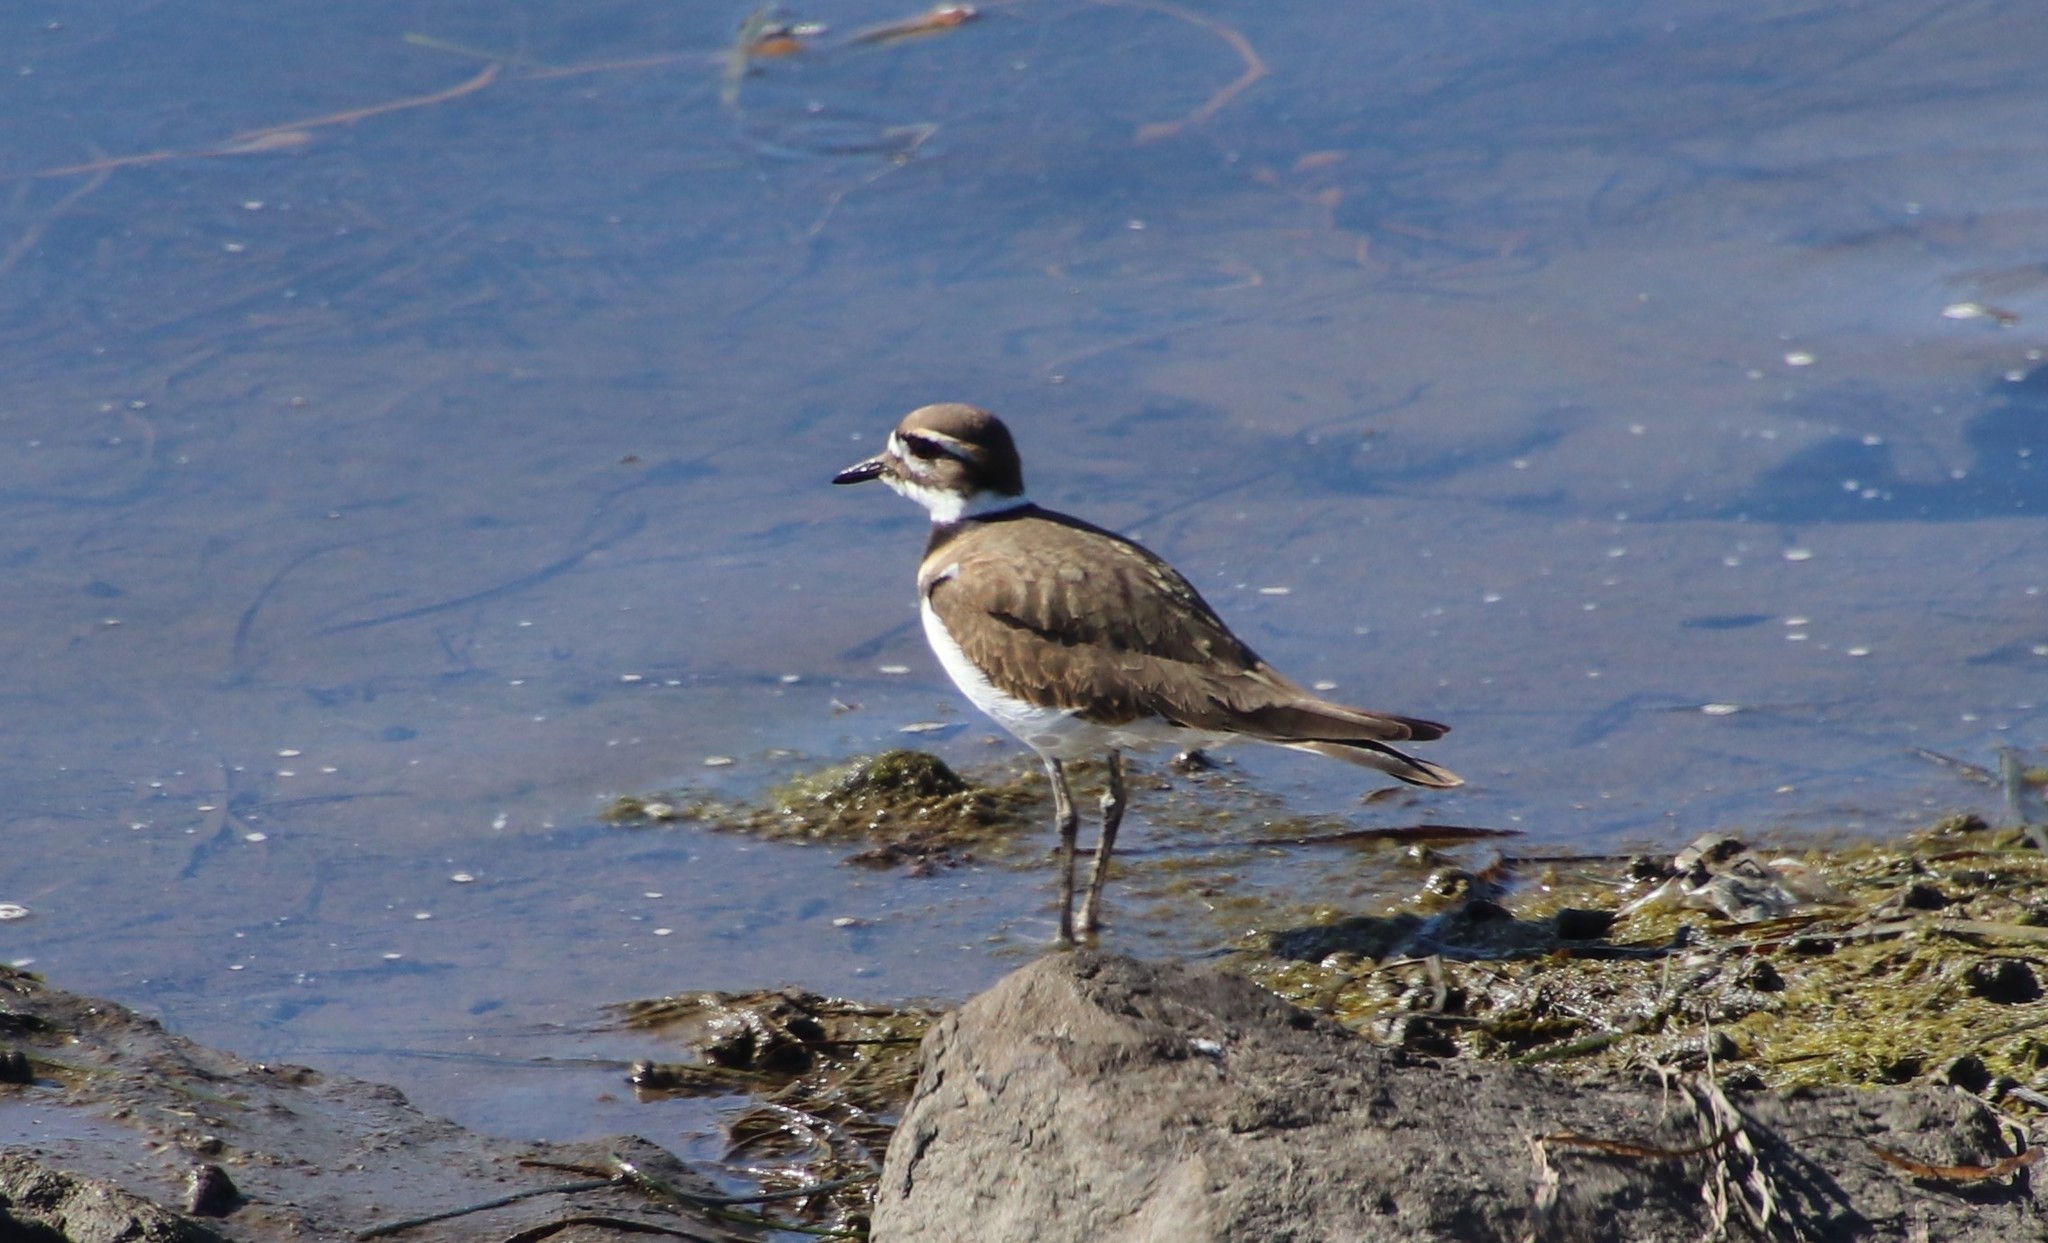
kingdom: Animalia
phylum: Chordata
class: Aves
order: Charadriiformes
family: Charadriidae
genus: Charadrius
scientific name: Charadrius vociferus
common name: Killdeer
